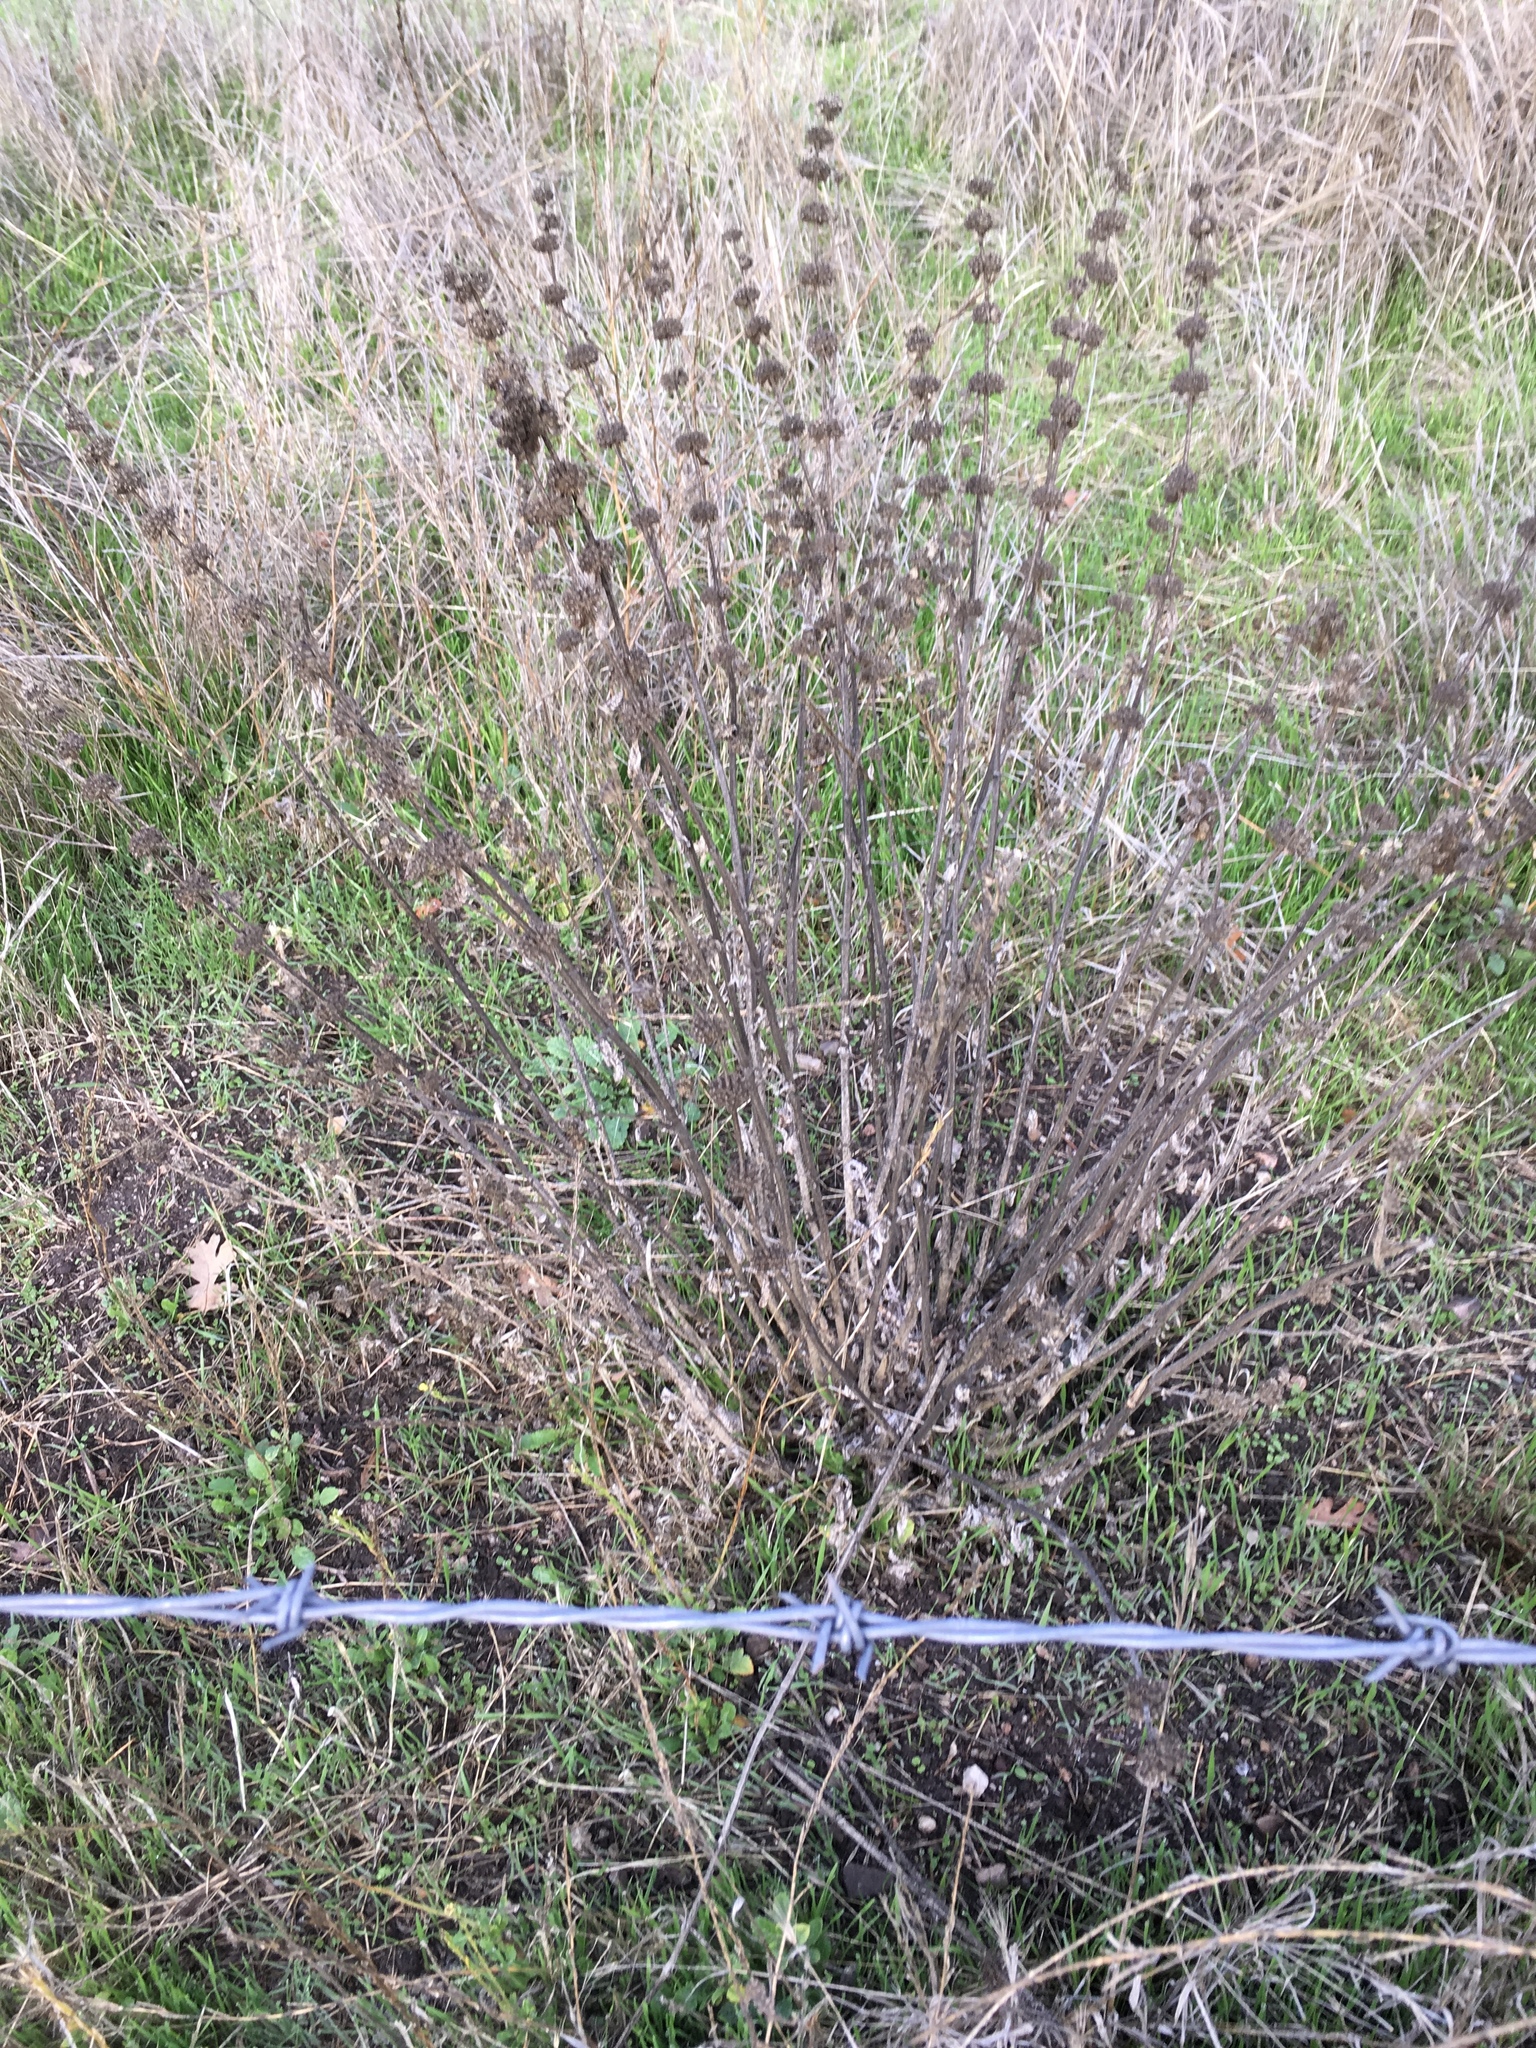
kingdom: Plantae
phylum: Tracheophyta
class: Magnoliopsida
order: Lamiales
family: Lamiaceae
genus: Marrubium
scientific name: Marrubium vulgare
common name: Horehound
